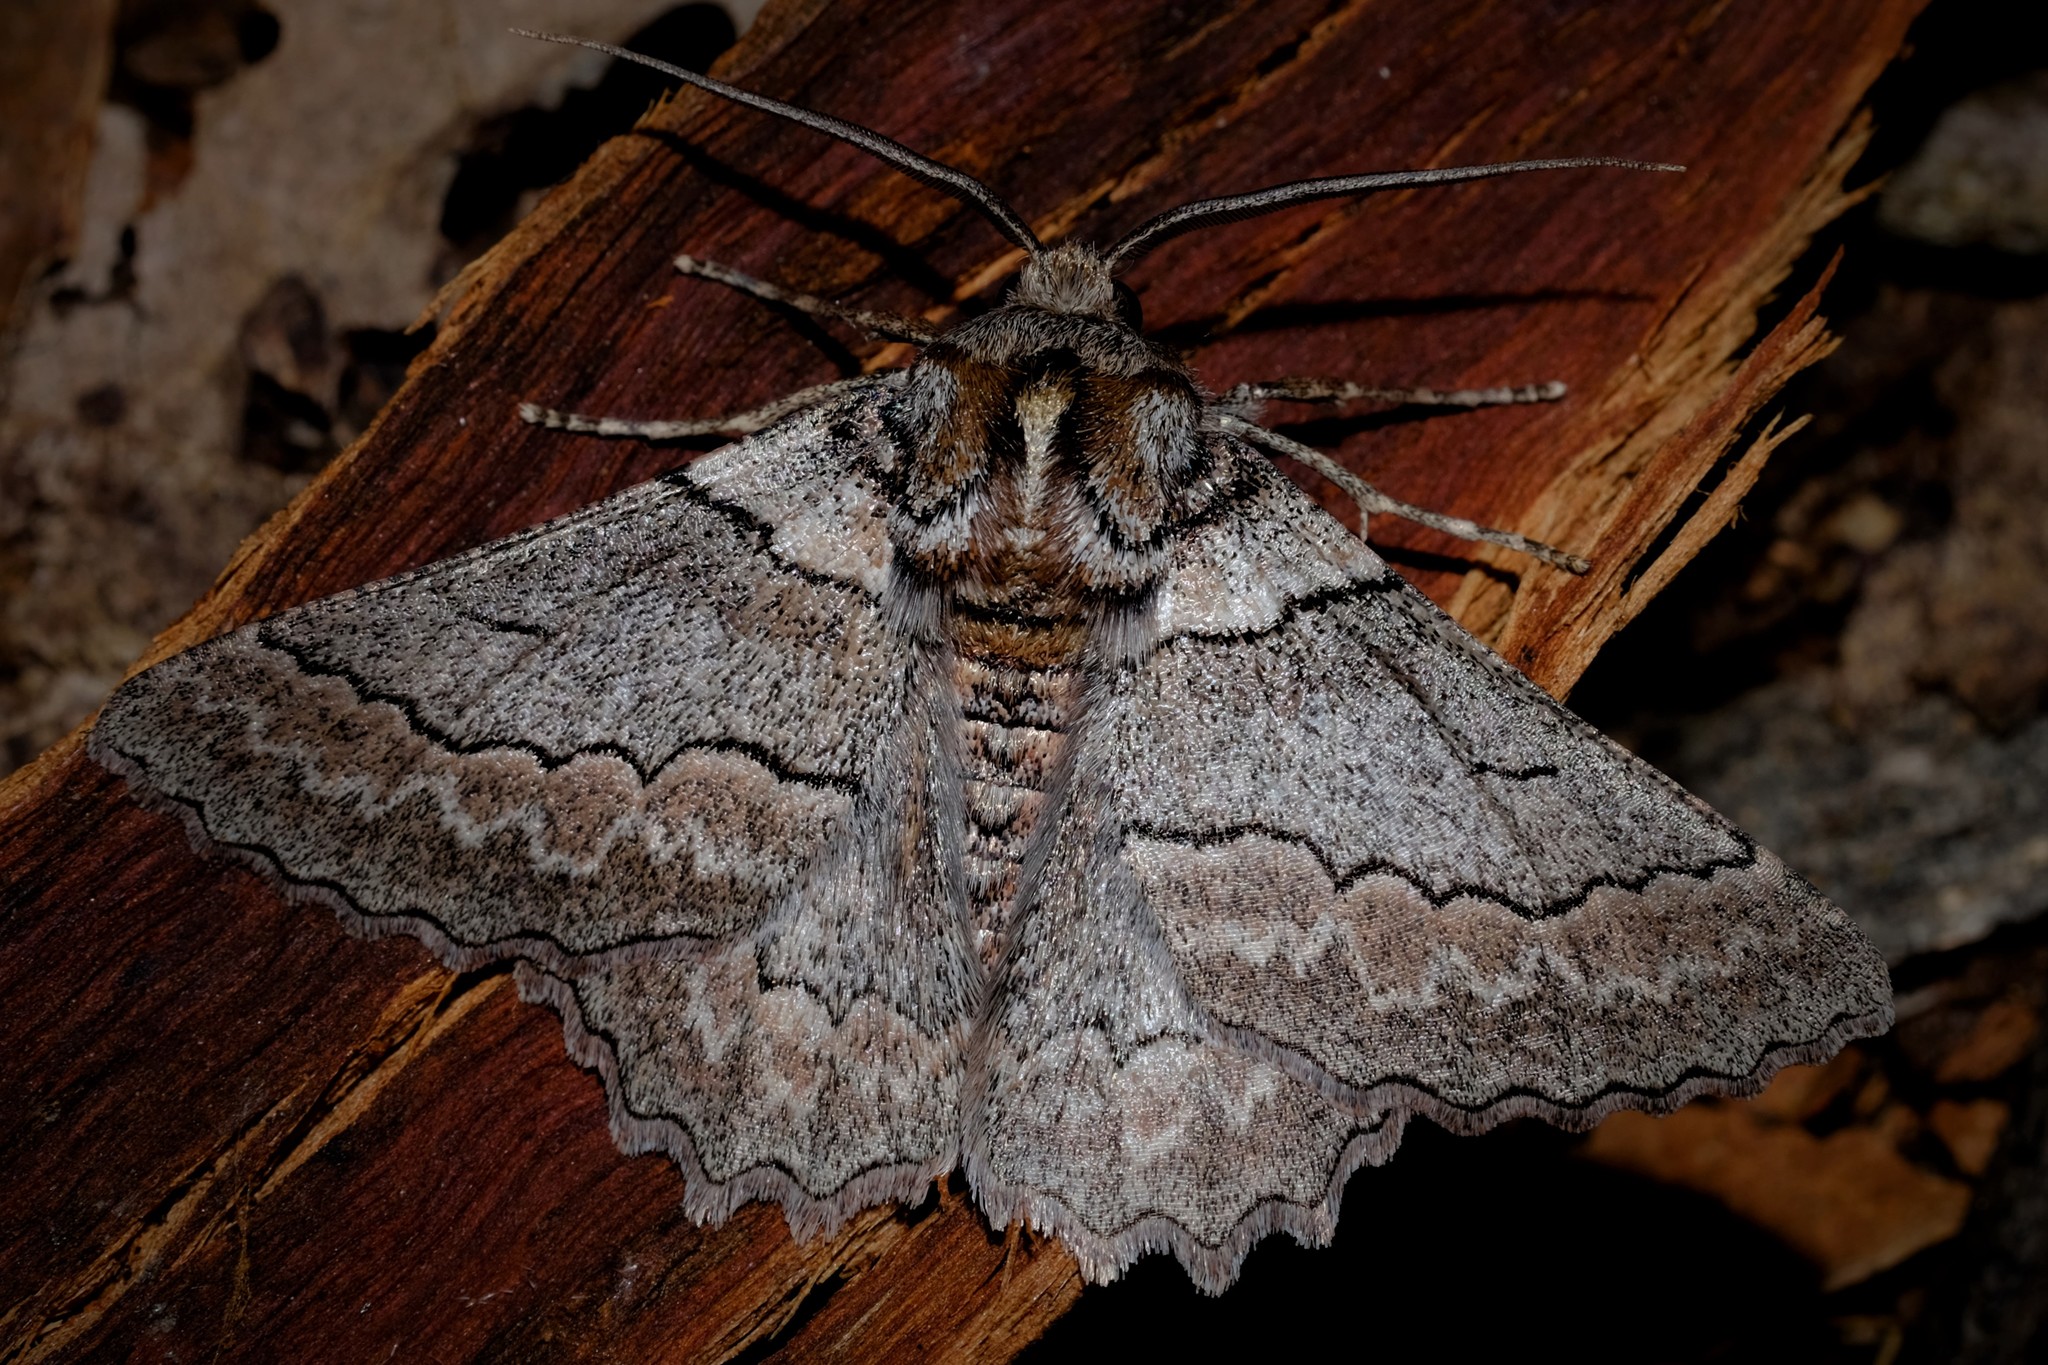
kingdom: Animalia
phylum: Arthropoda
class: Insecta
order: Lepidoptera
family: Geometridae
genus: Hypobapta
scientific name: Hypobapta tachyhalotaria
